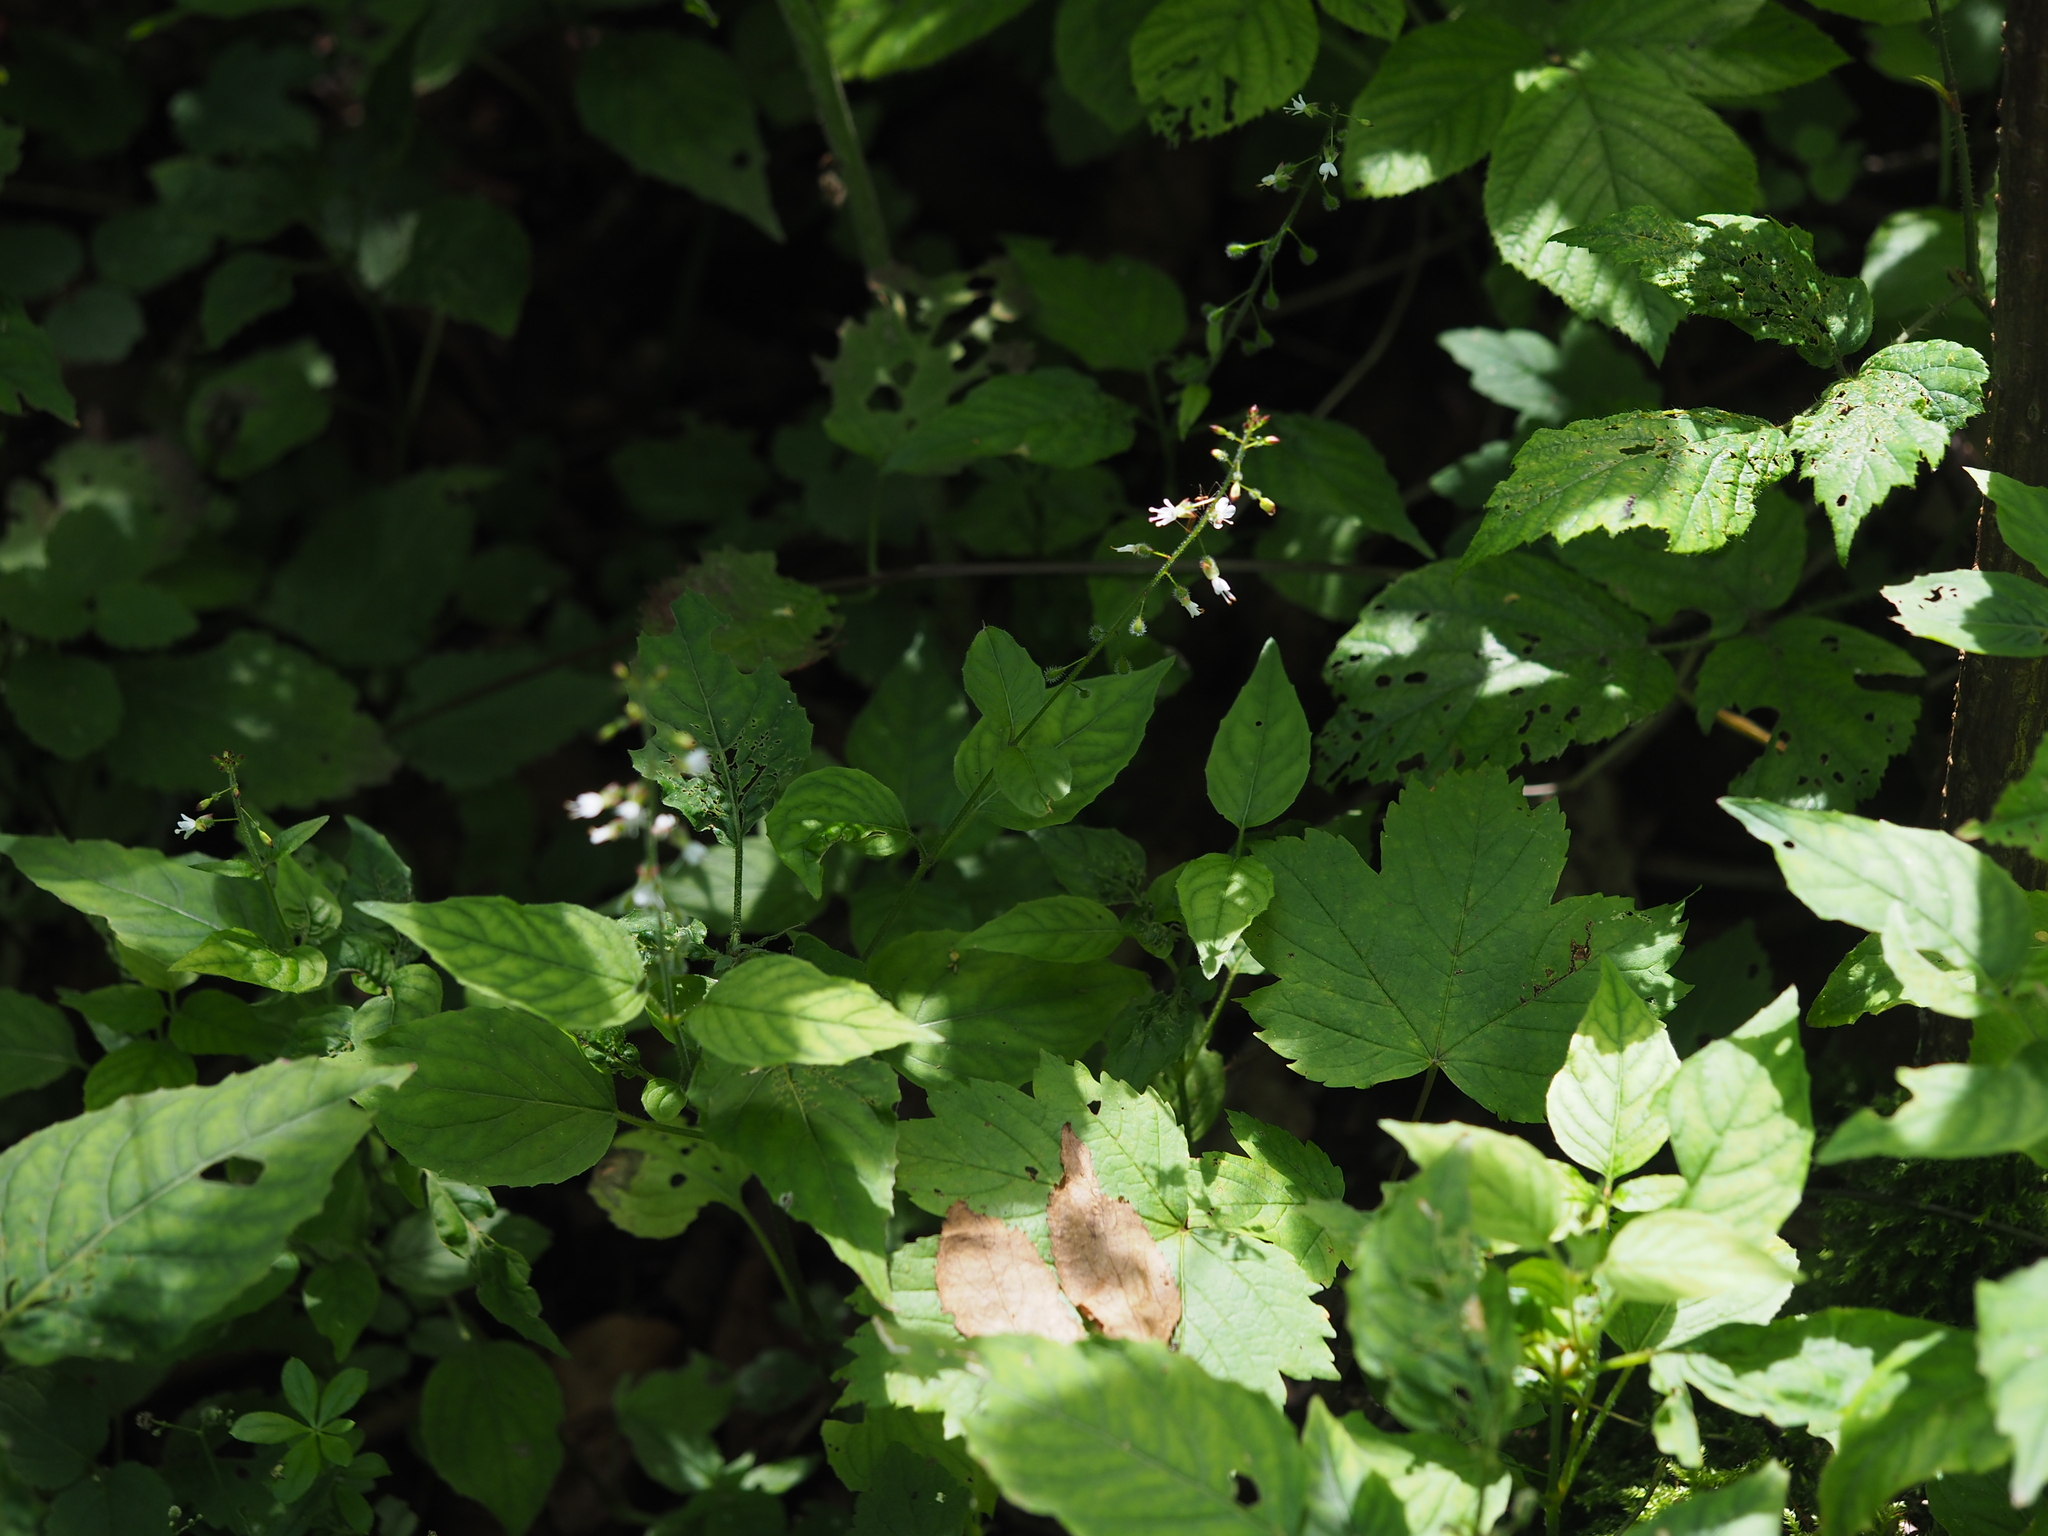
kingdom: Plantae
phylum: Tracheophyta
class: Magnoliopsida
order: Myrtales
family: Onagraceae
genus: Circaea
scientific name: Circaea lutetiana
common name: Enchanter's-nightshade
